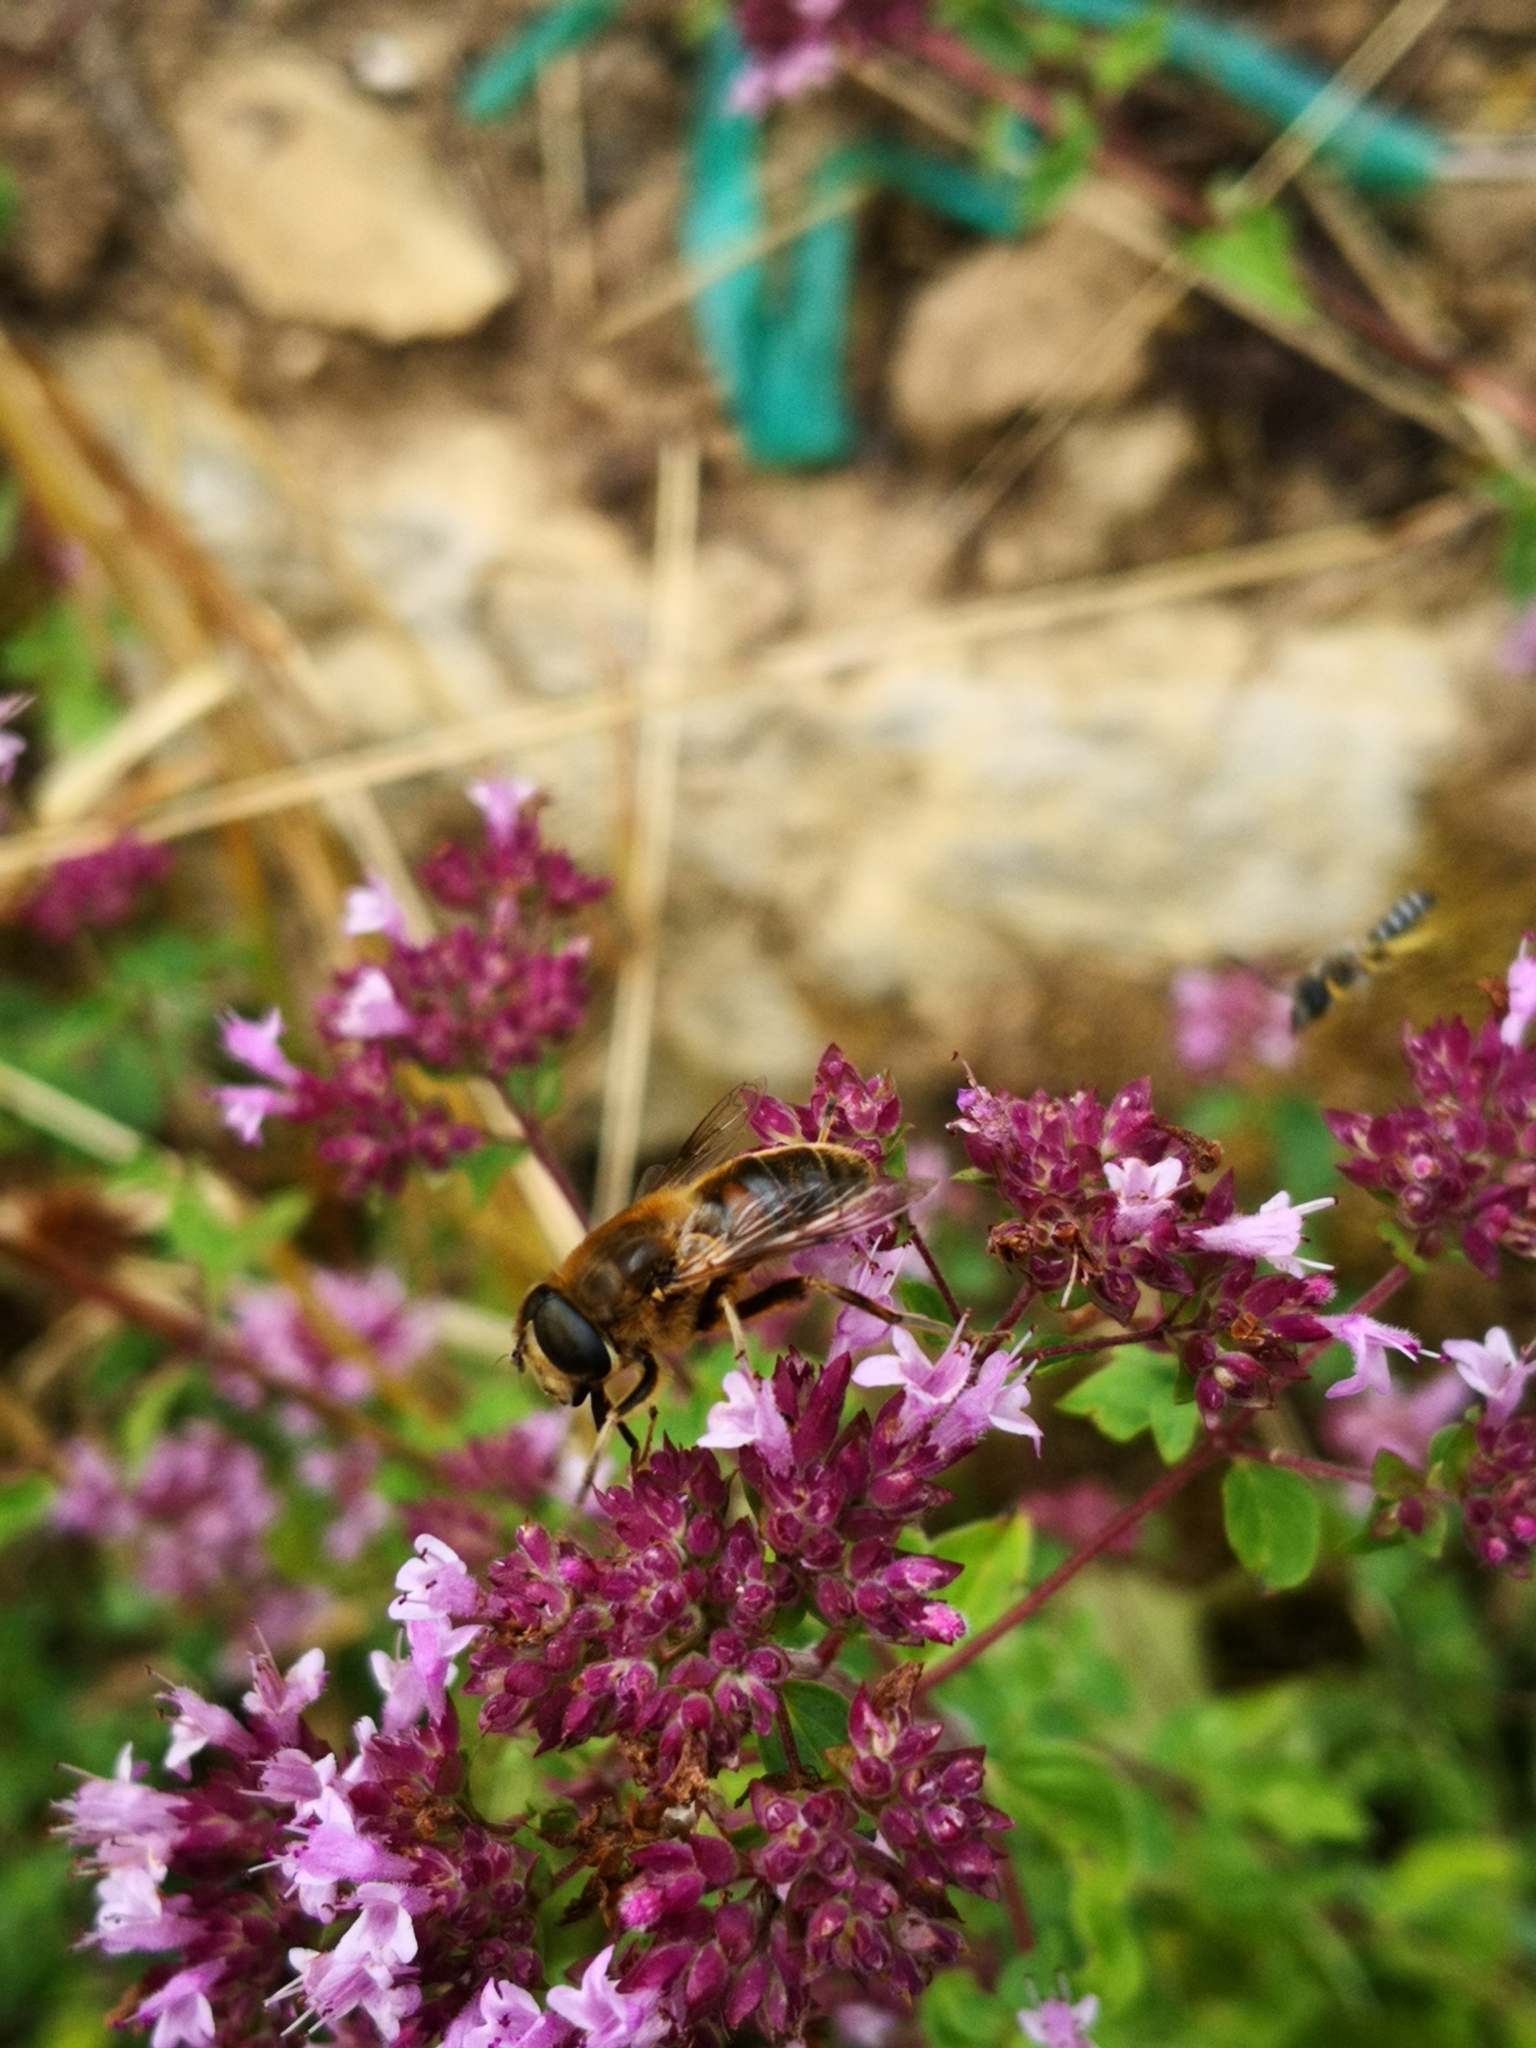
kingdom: Animalia
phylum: Arthropoda
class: Insecta
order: Diptera
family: Syrphidae
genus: Eristalis
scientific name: Eristalis tenax
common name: Drone fly
